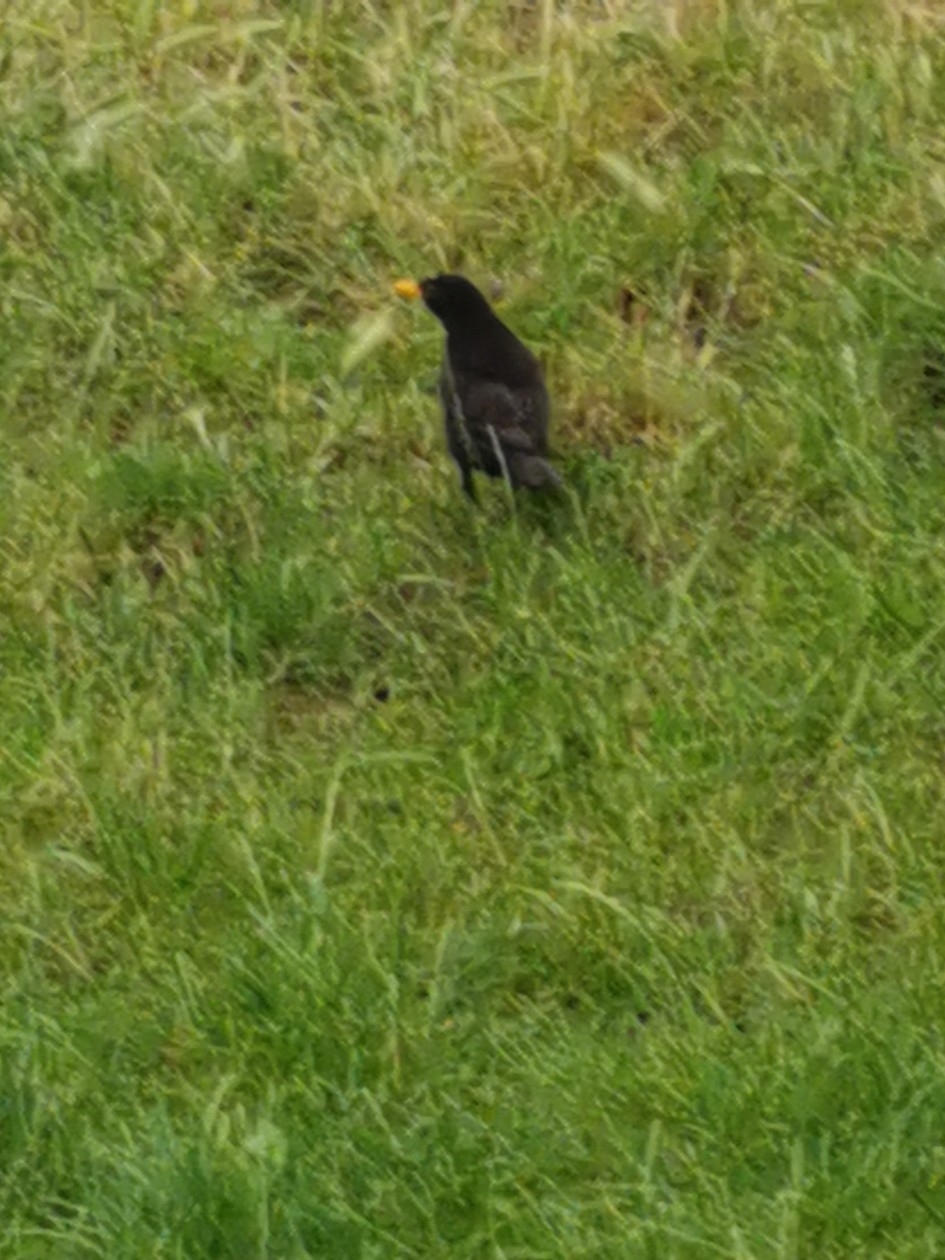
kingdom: Animalia
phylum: Chordata
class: Aves
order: Passeriformes
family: Turdidae
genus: Turdus
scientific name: Turdus merula
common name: Common blackbird
